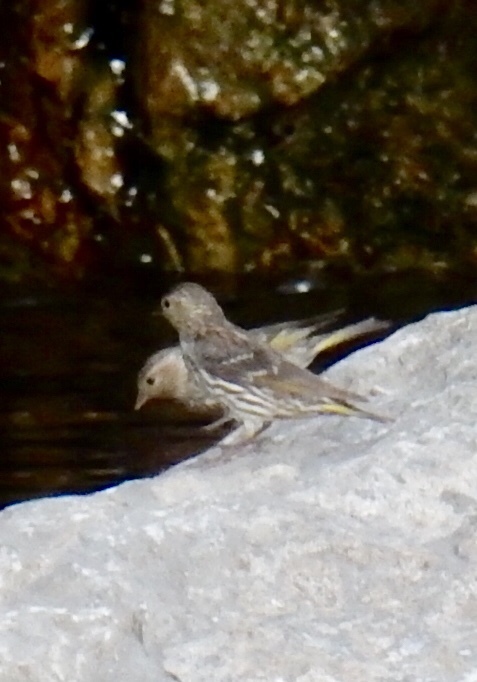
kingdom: Animalia
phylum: Chordata
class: Aves
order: Passeriformes
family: Fringillidae
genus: Spinus
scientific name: Spinus pinus
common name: Pine siskin
